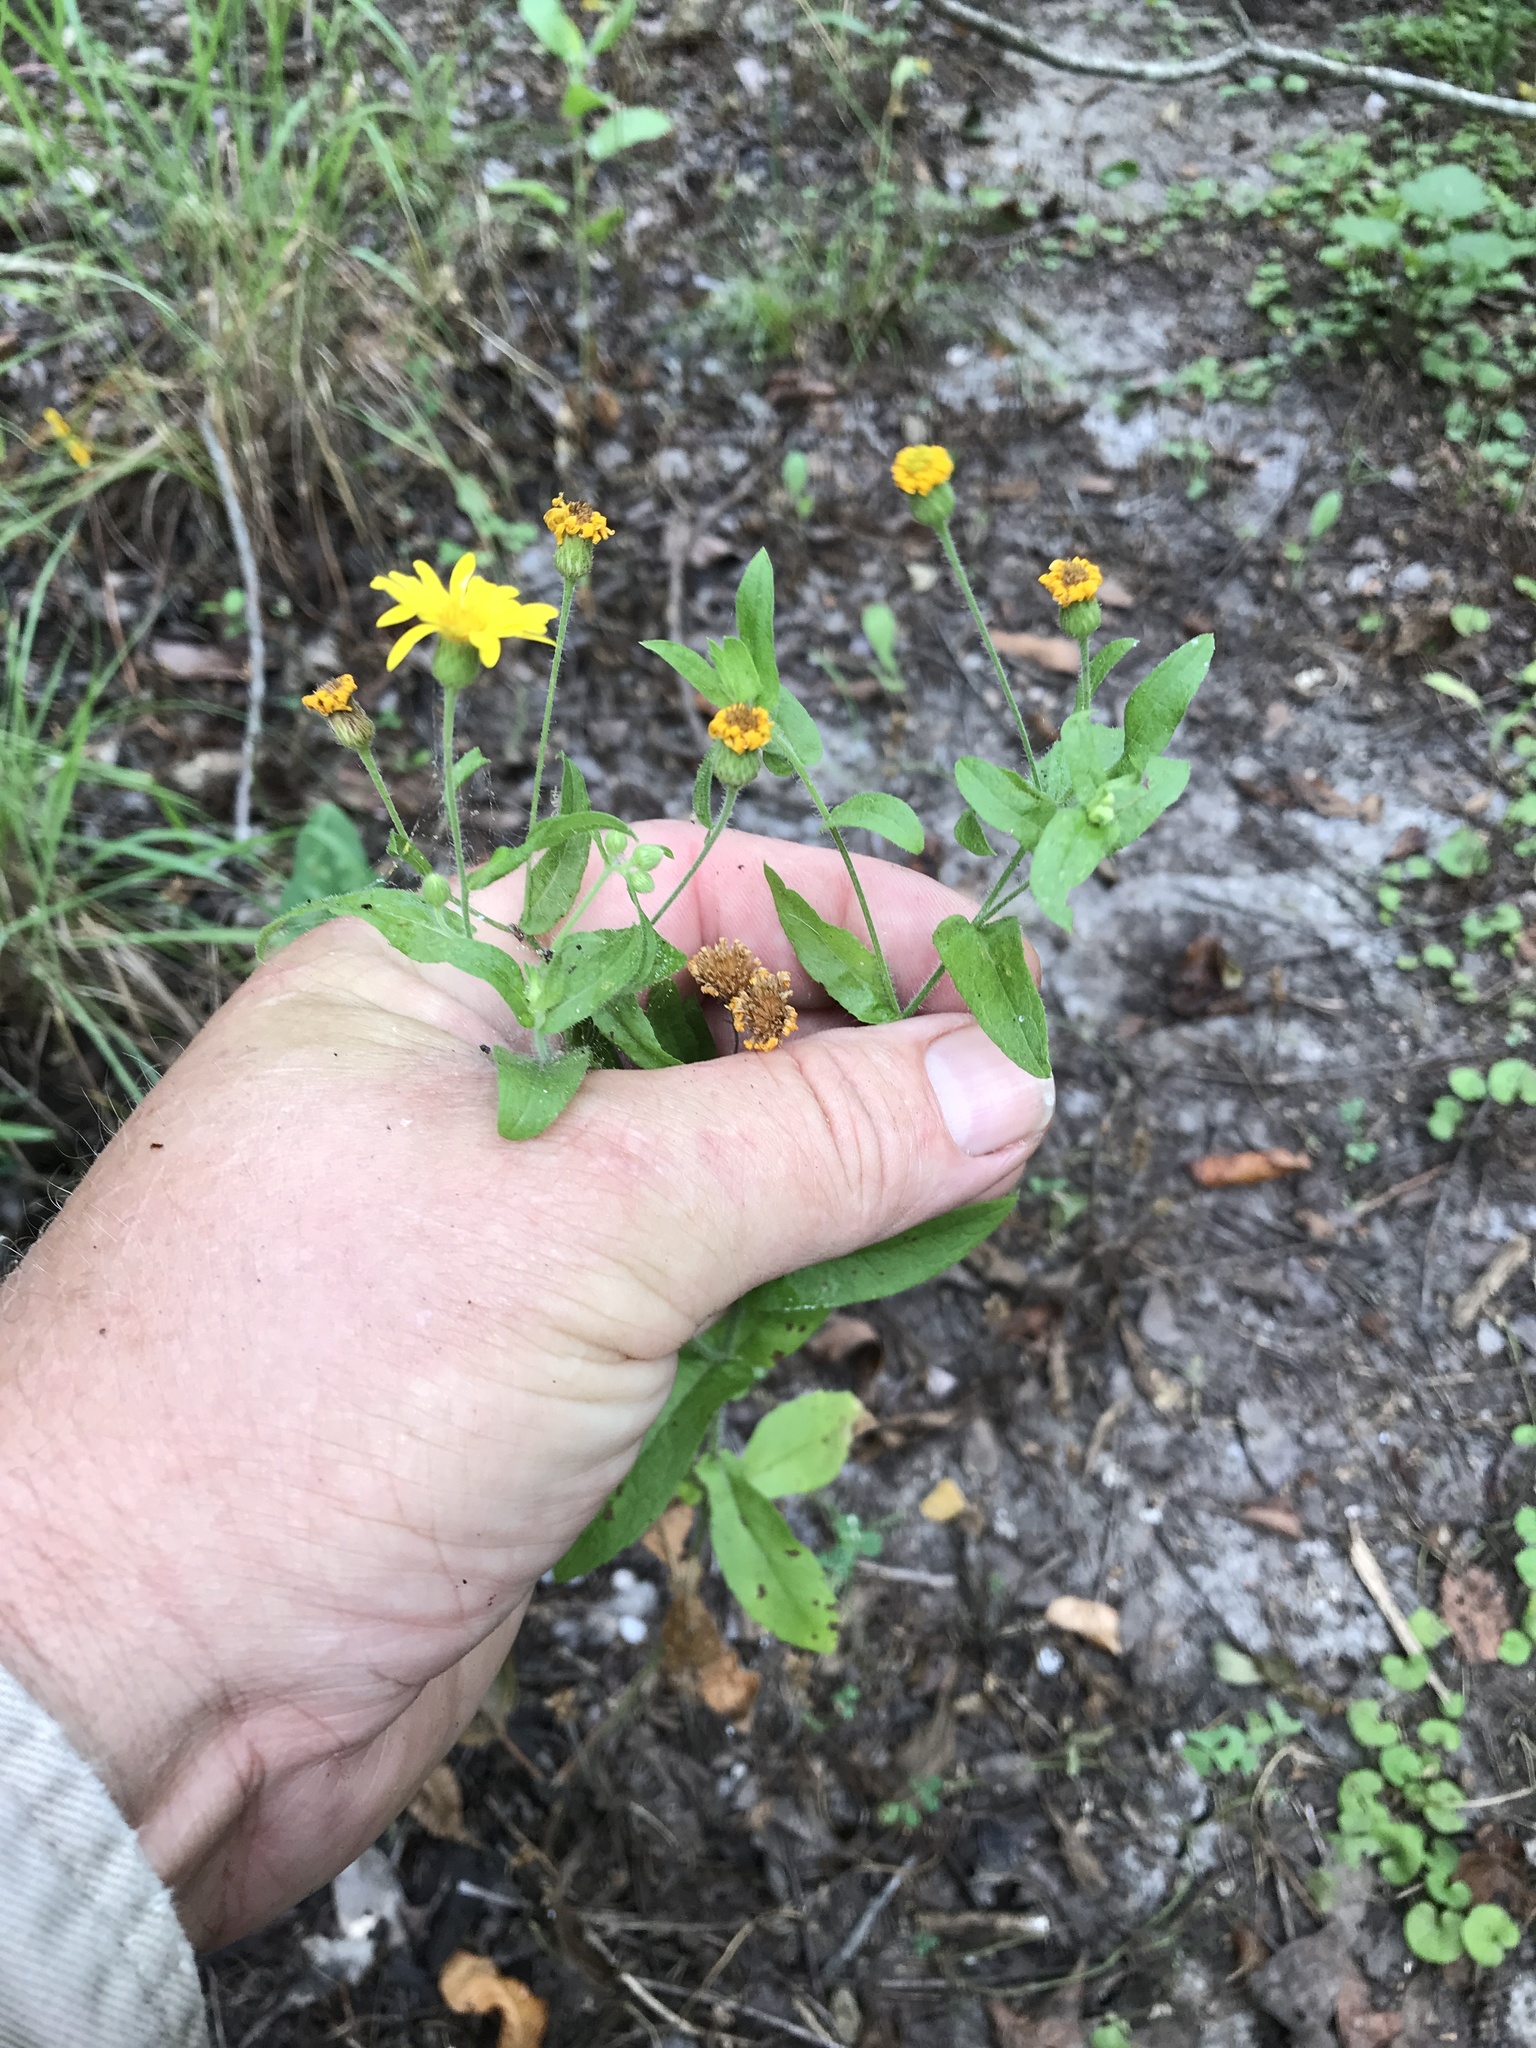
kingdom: Plantae
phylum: Tracheophyta
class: Magnoliopsida
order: Asterales
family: Asteraceae
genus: Heterotheca
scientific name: Heterotheca subaxillaris
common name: Camphorweed
